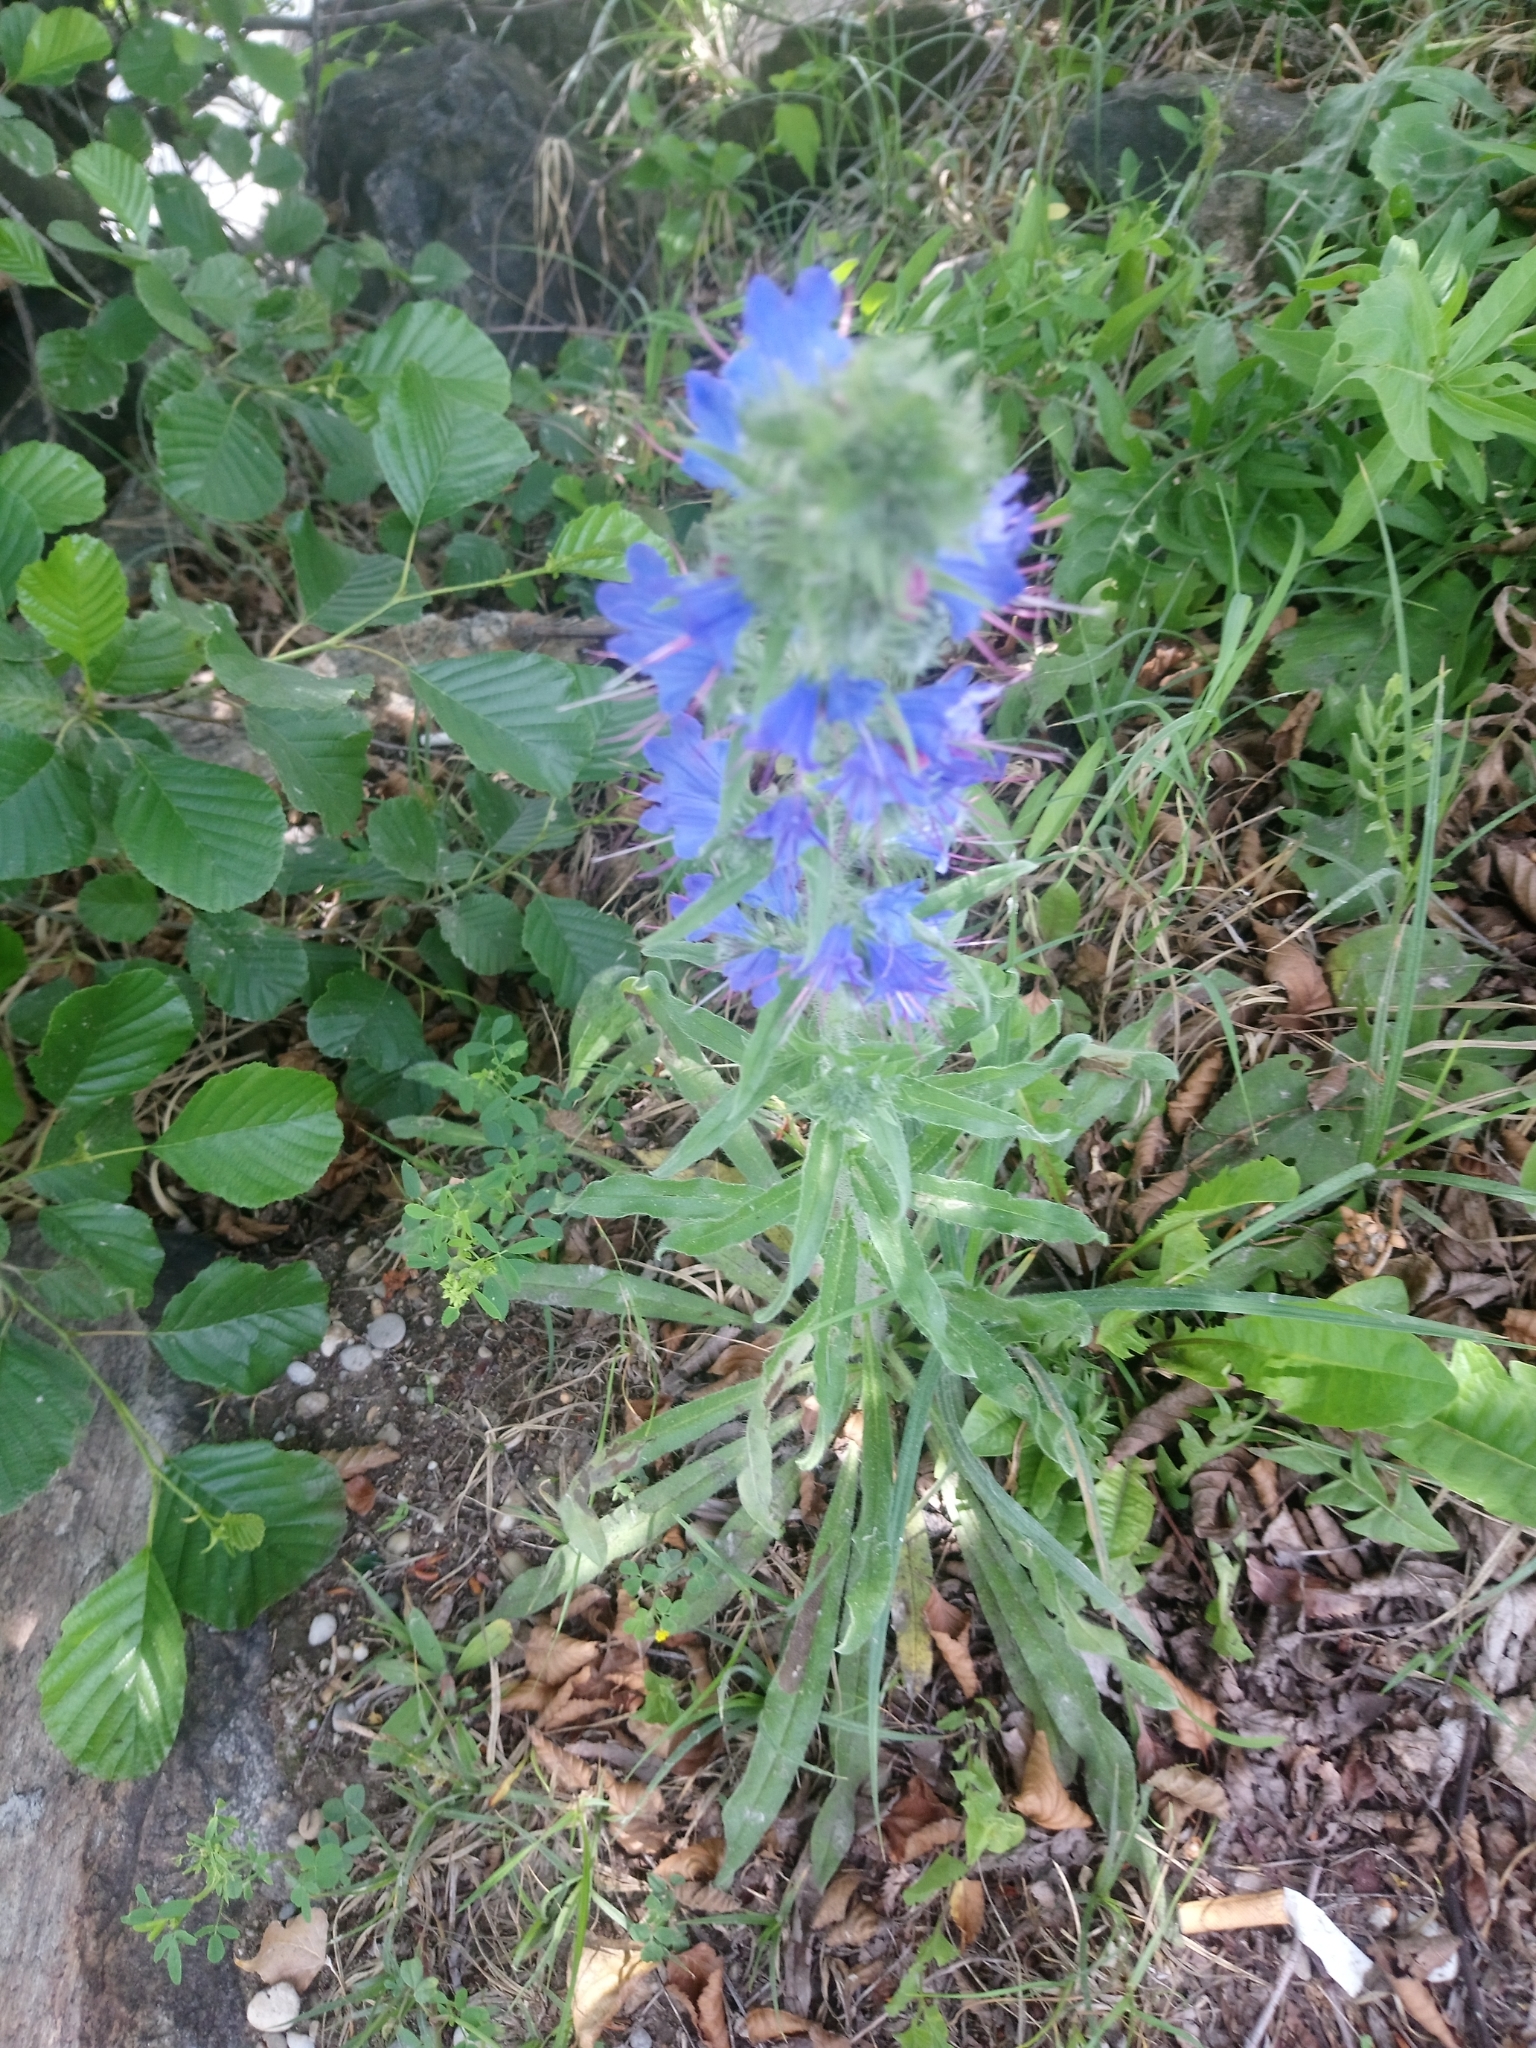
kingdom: Plantae
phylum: Tracheophyta
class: Magnoliopsida
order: Boraginales
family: Boraginaceae
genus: Echium
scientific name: Echium vulgare
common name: Common viper's bugloss
